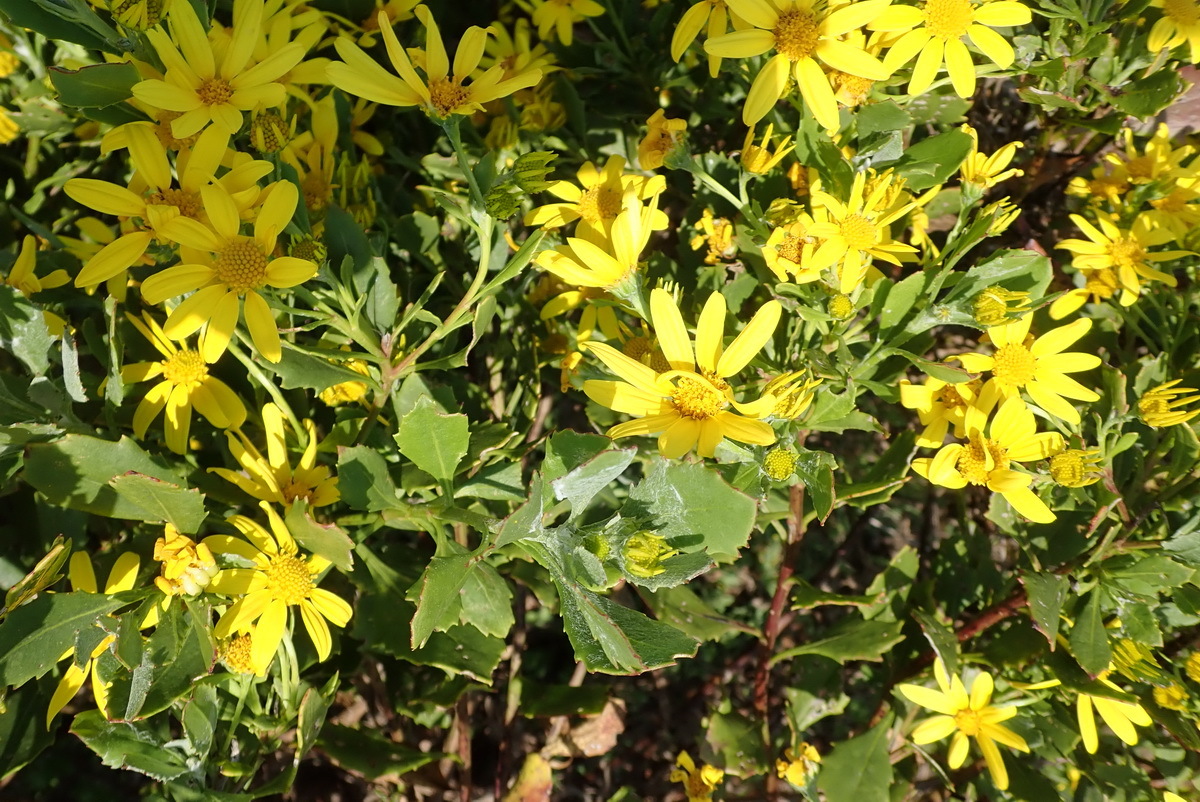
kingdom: Plantae
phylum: Tracheophyta
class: Magnoliopsida
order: Asterales
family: Asteraceae
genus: Osteospermum
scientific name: Osteospermum moniliferum
